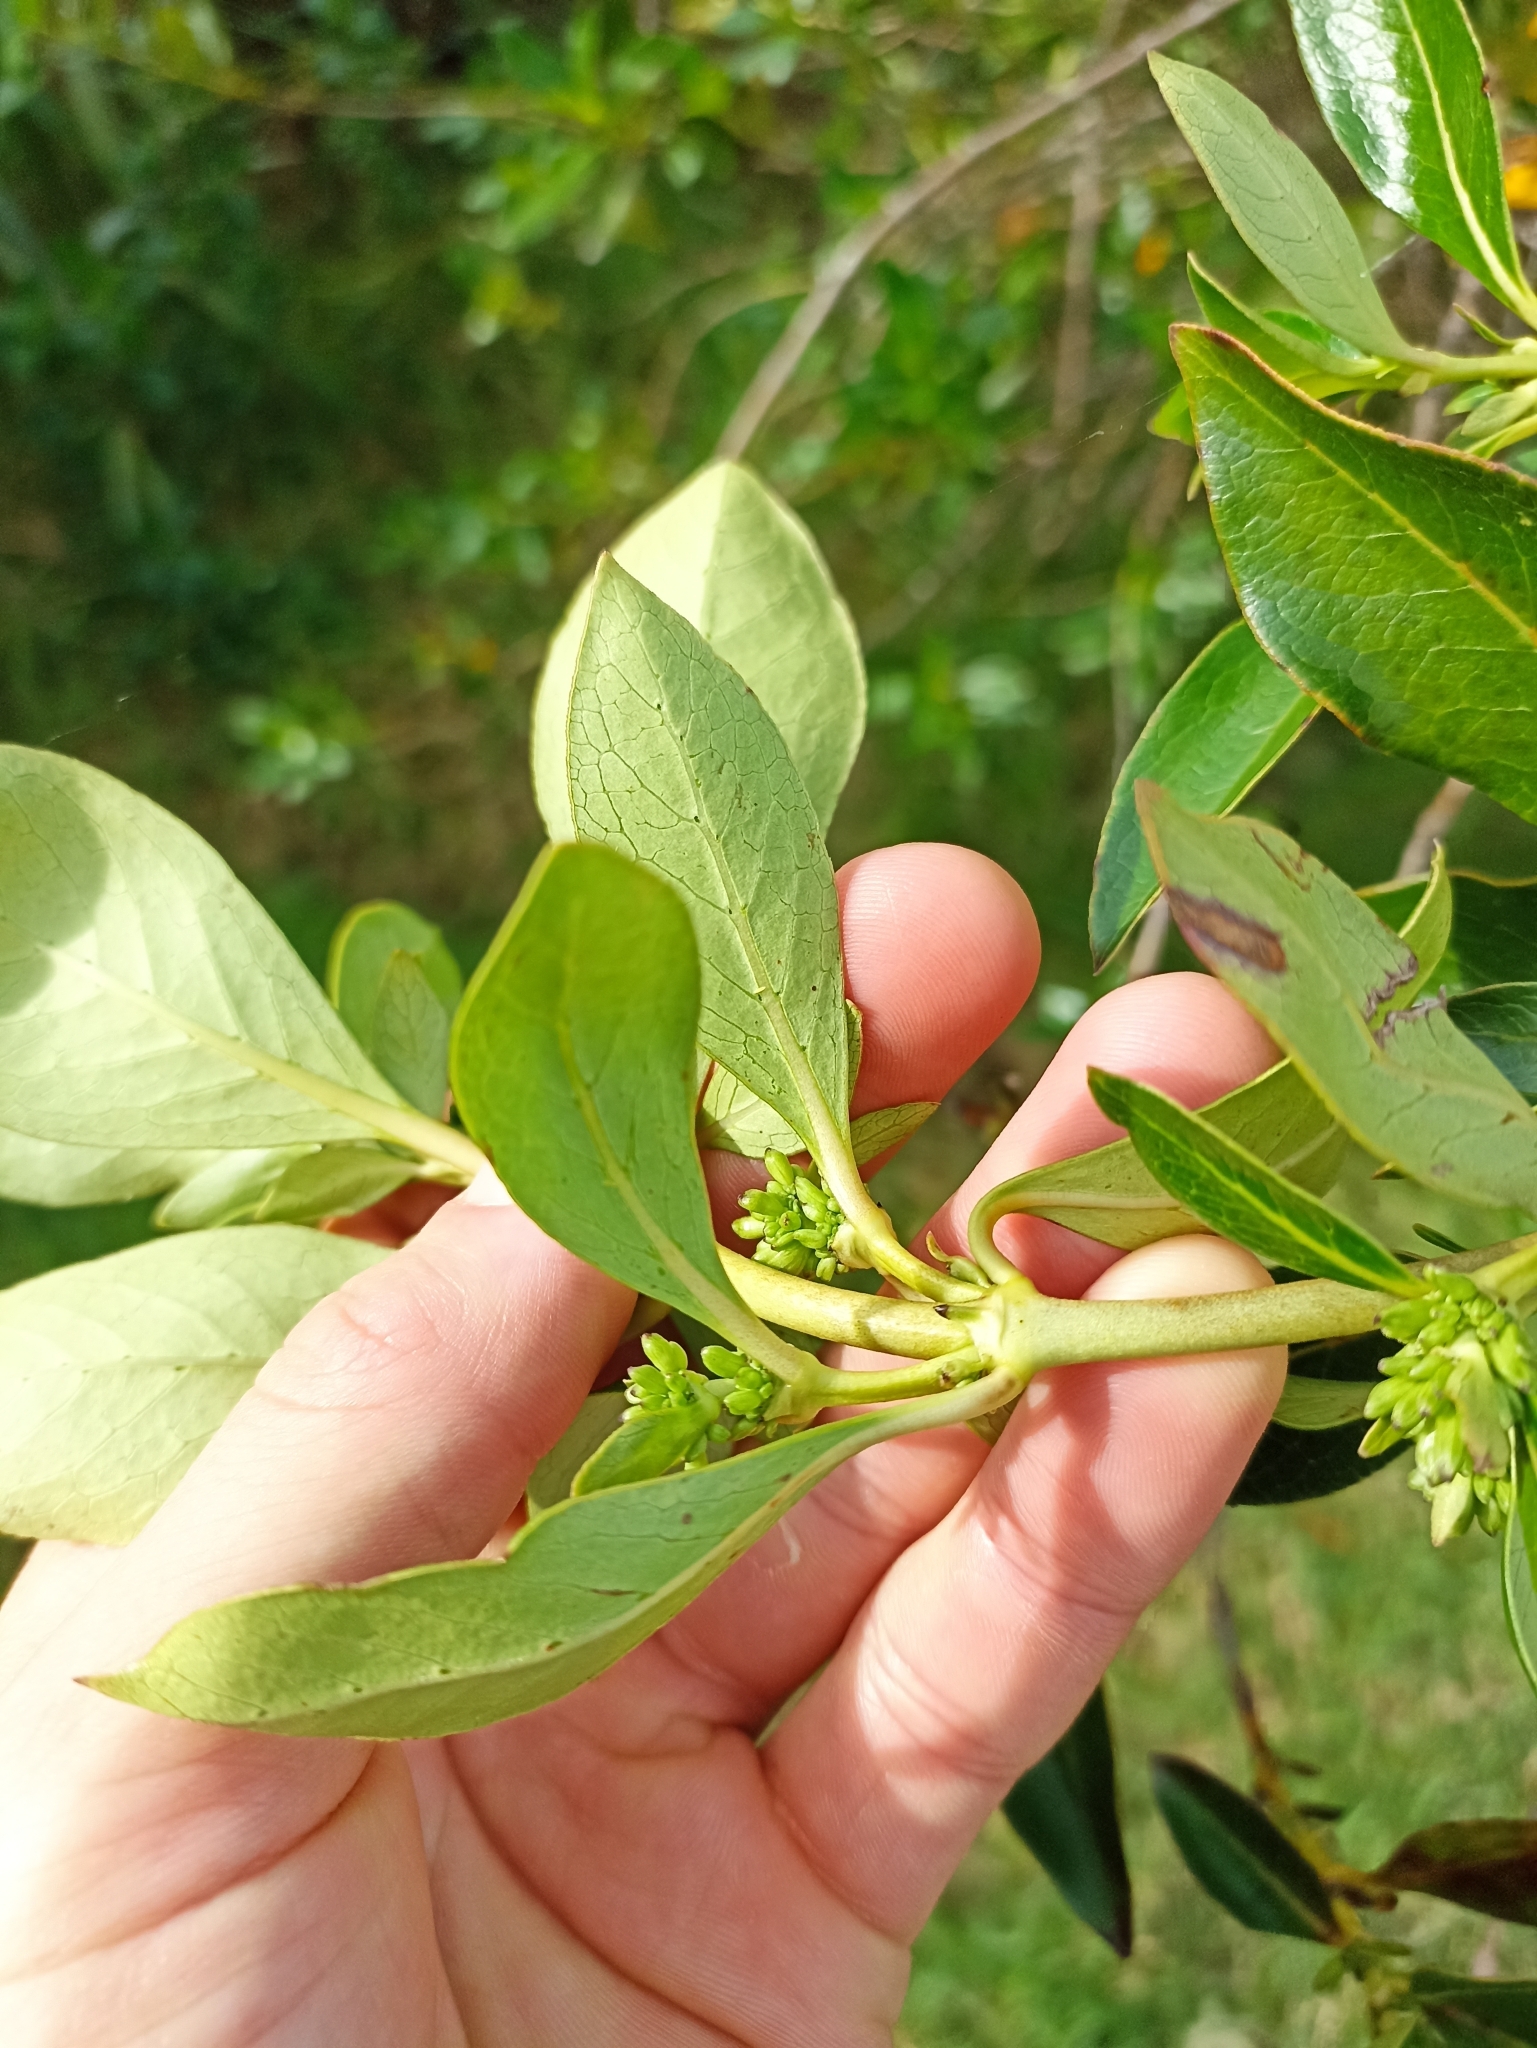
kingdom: Plantae
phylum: Tracheophyta
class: Magnoliopsida
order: Gentianales
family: Rubiaceae
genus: Coprosma
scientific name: Coprosma robusta
